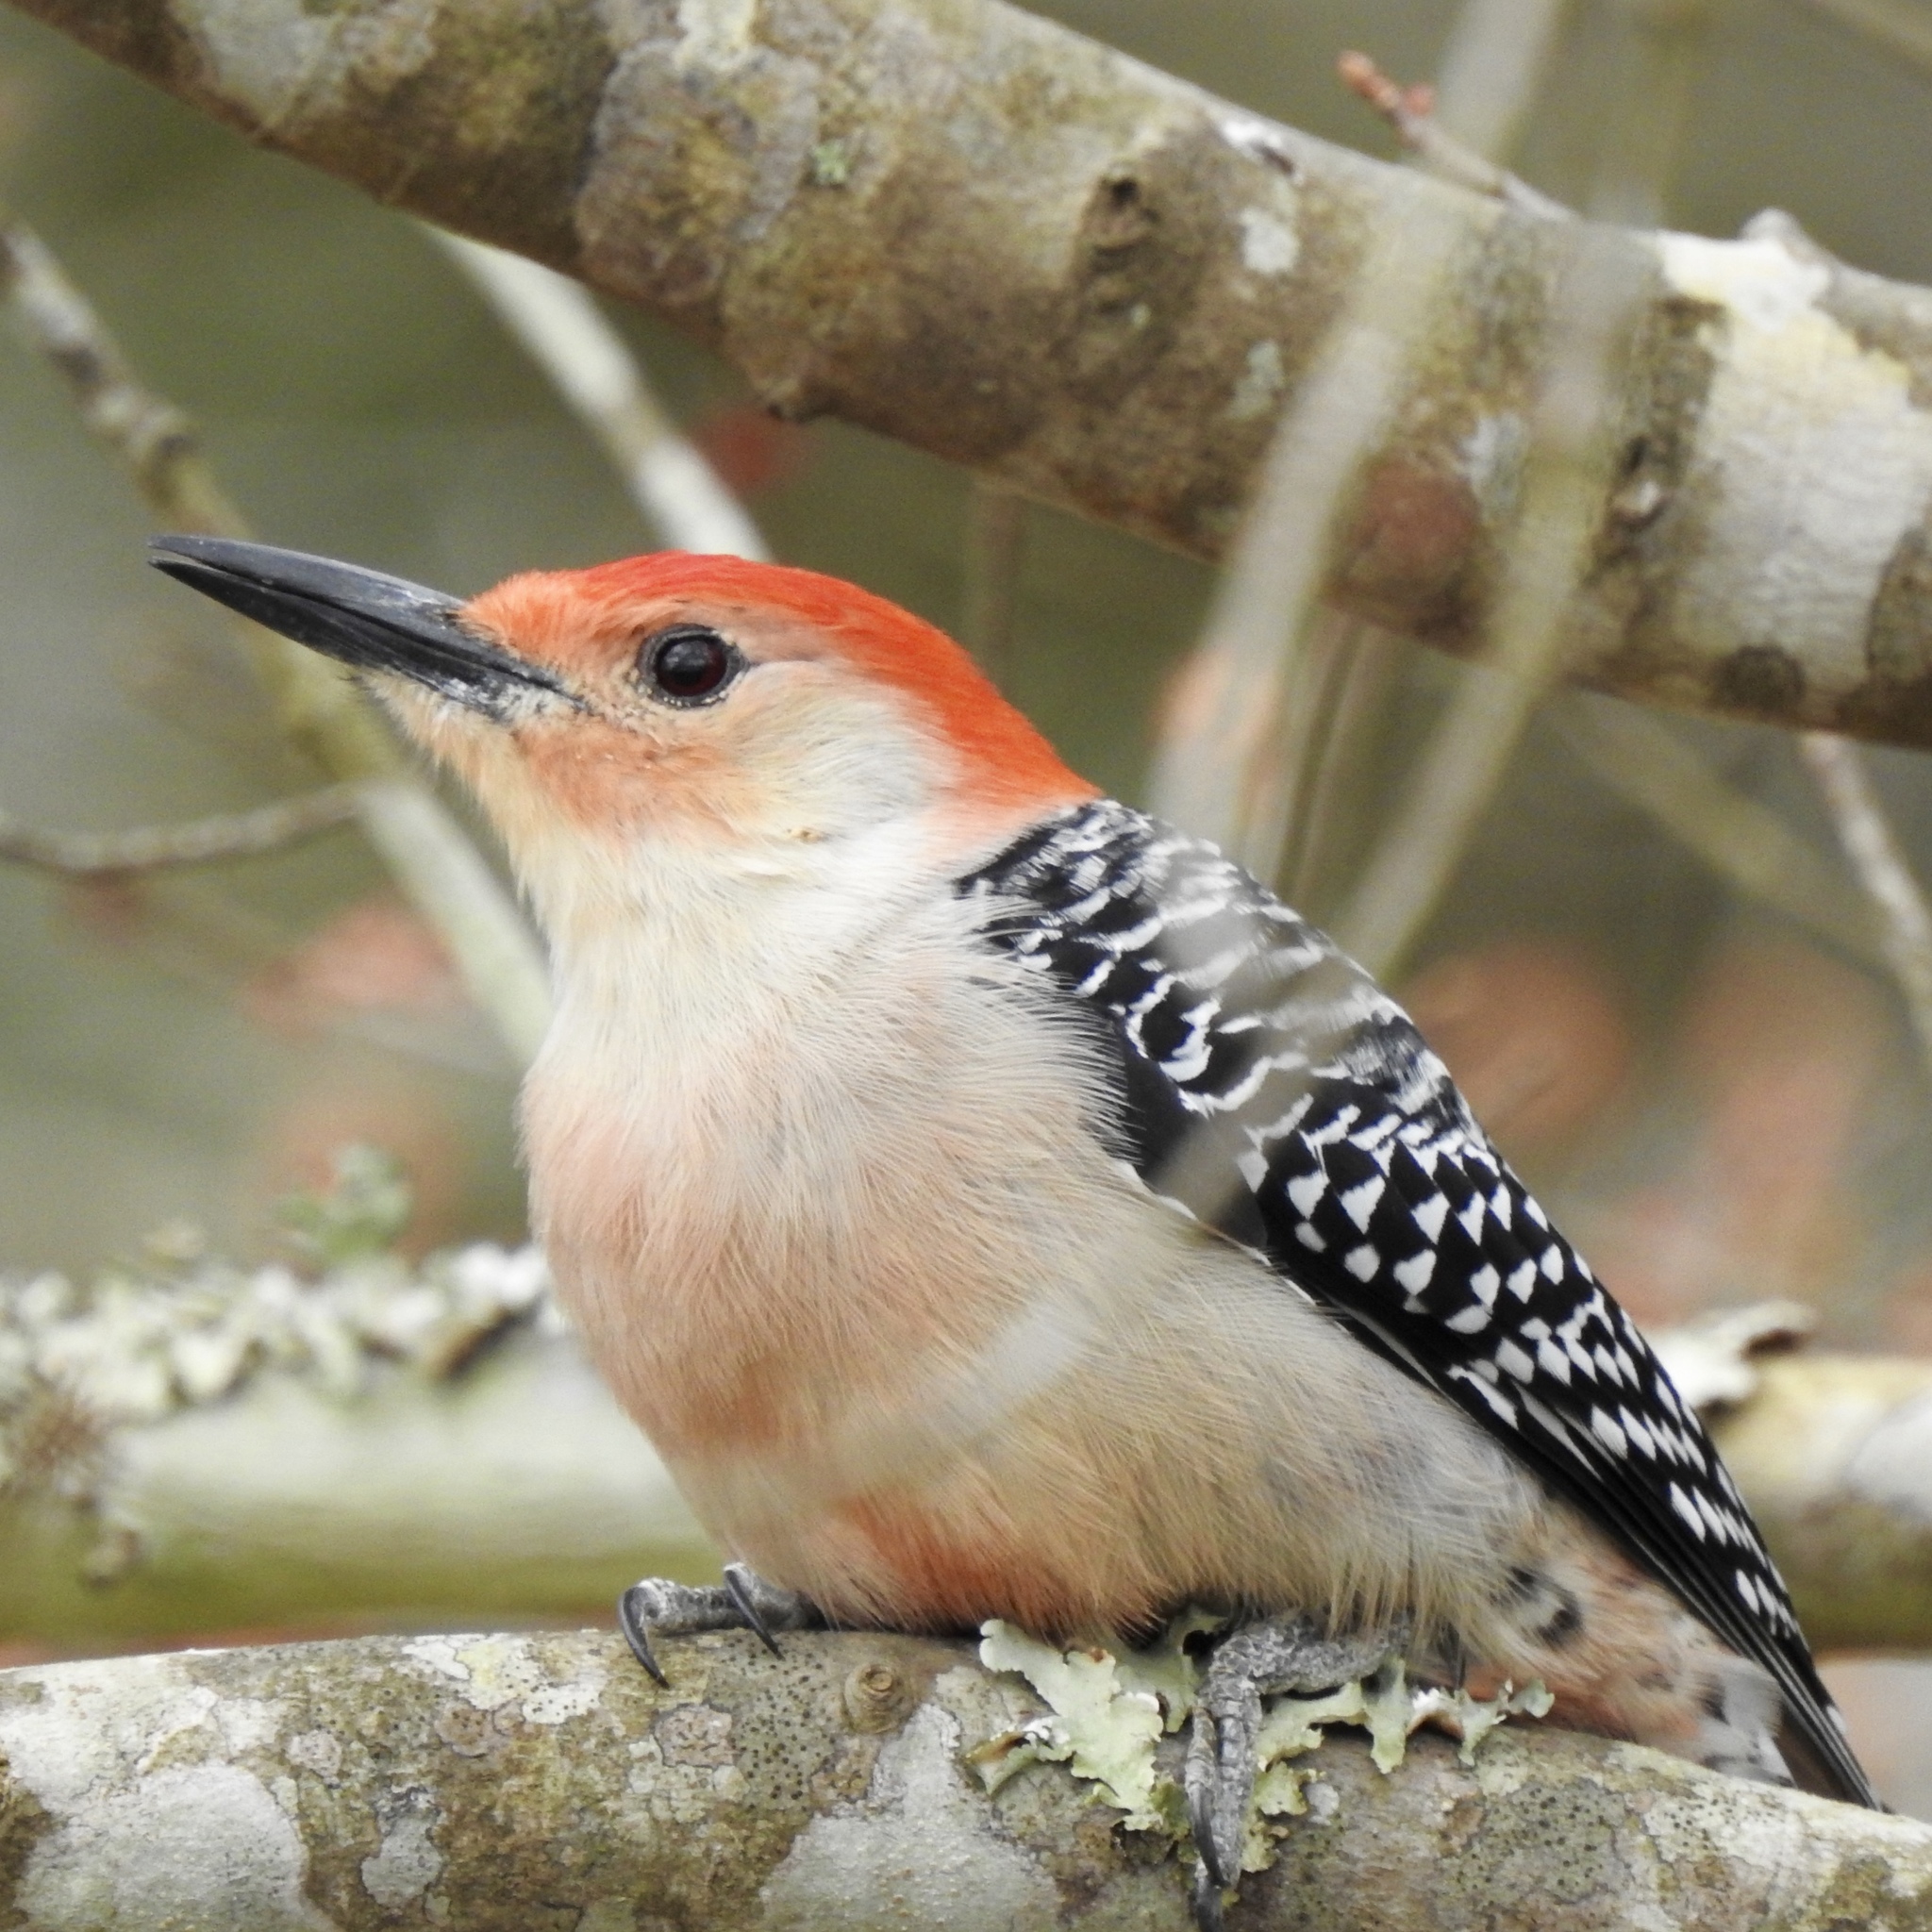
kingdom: Animalia
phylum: Chordata
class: Aves
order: Piciformes
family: Picidae
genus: Melanerpes
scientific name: Melanerpes carolinus
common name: Red-bellied woodpecker
